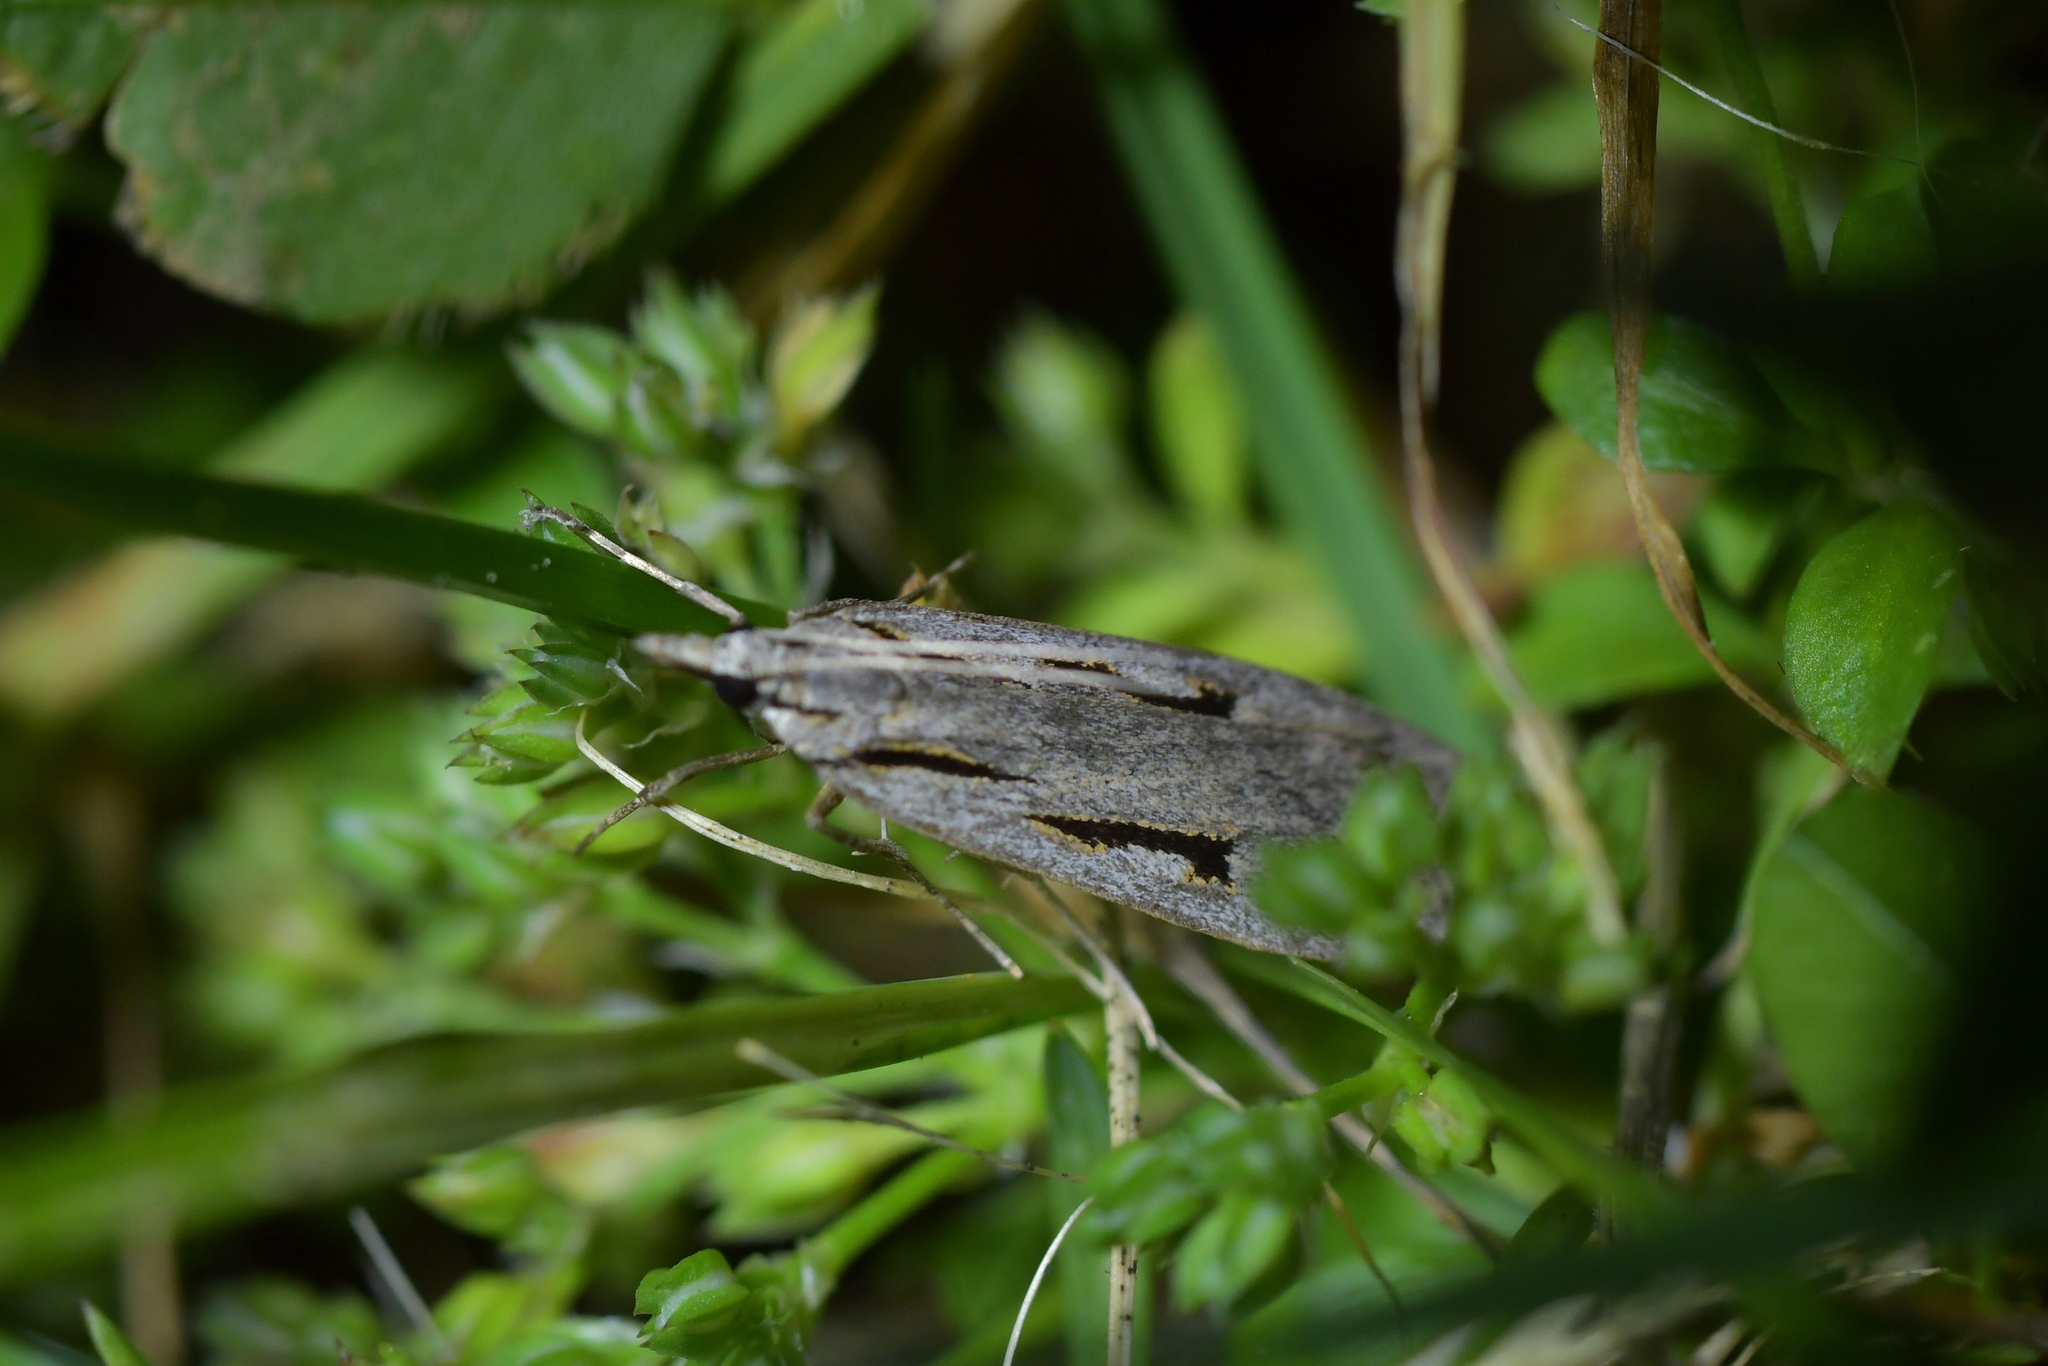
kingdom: Animalia
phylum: Arthropoda
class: Insecta
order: Lepidoptera
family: Crambidae
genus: Scoparia
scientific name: Scoparia rotuellus
